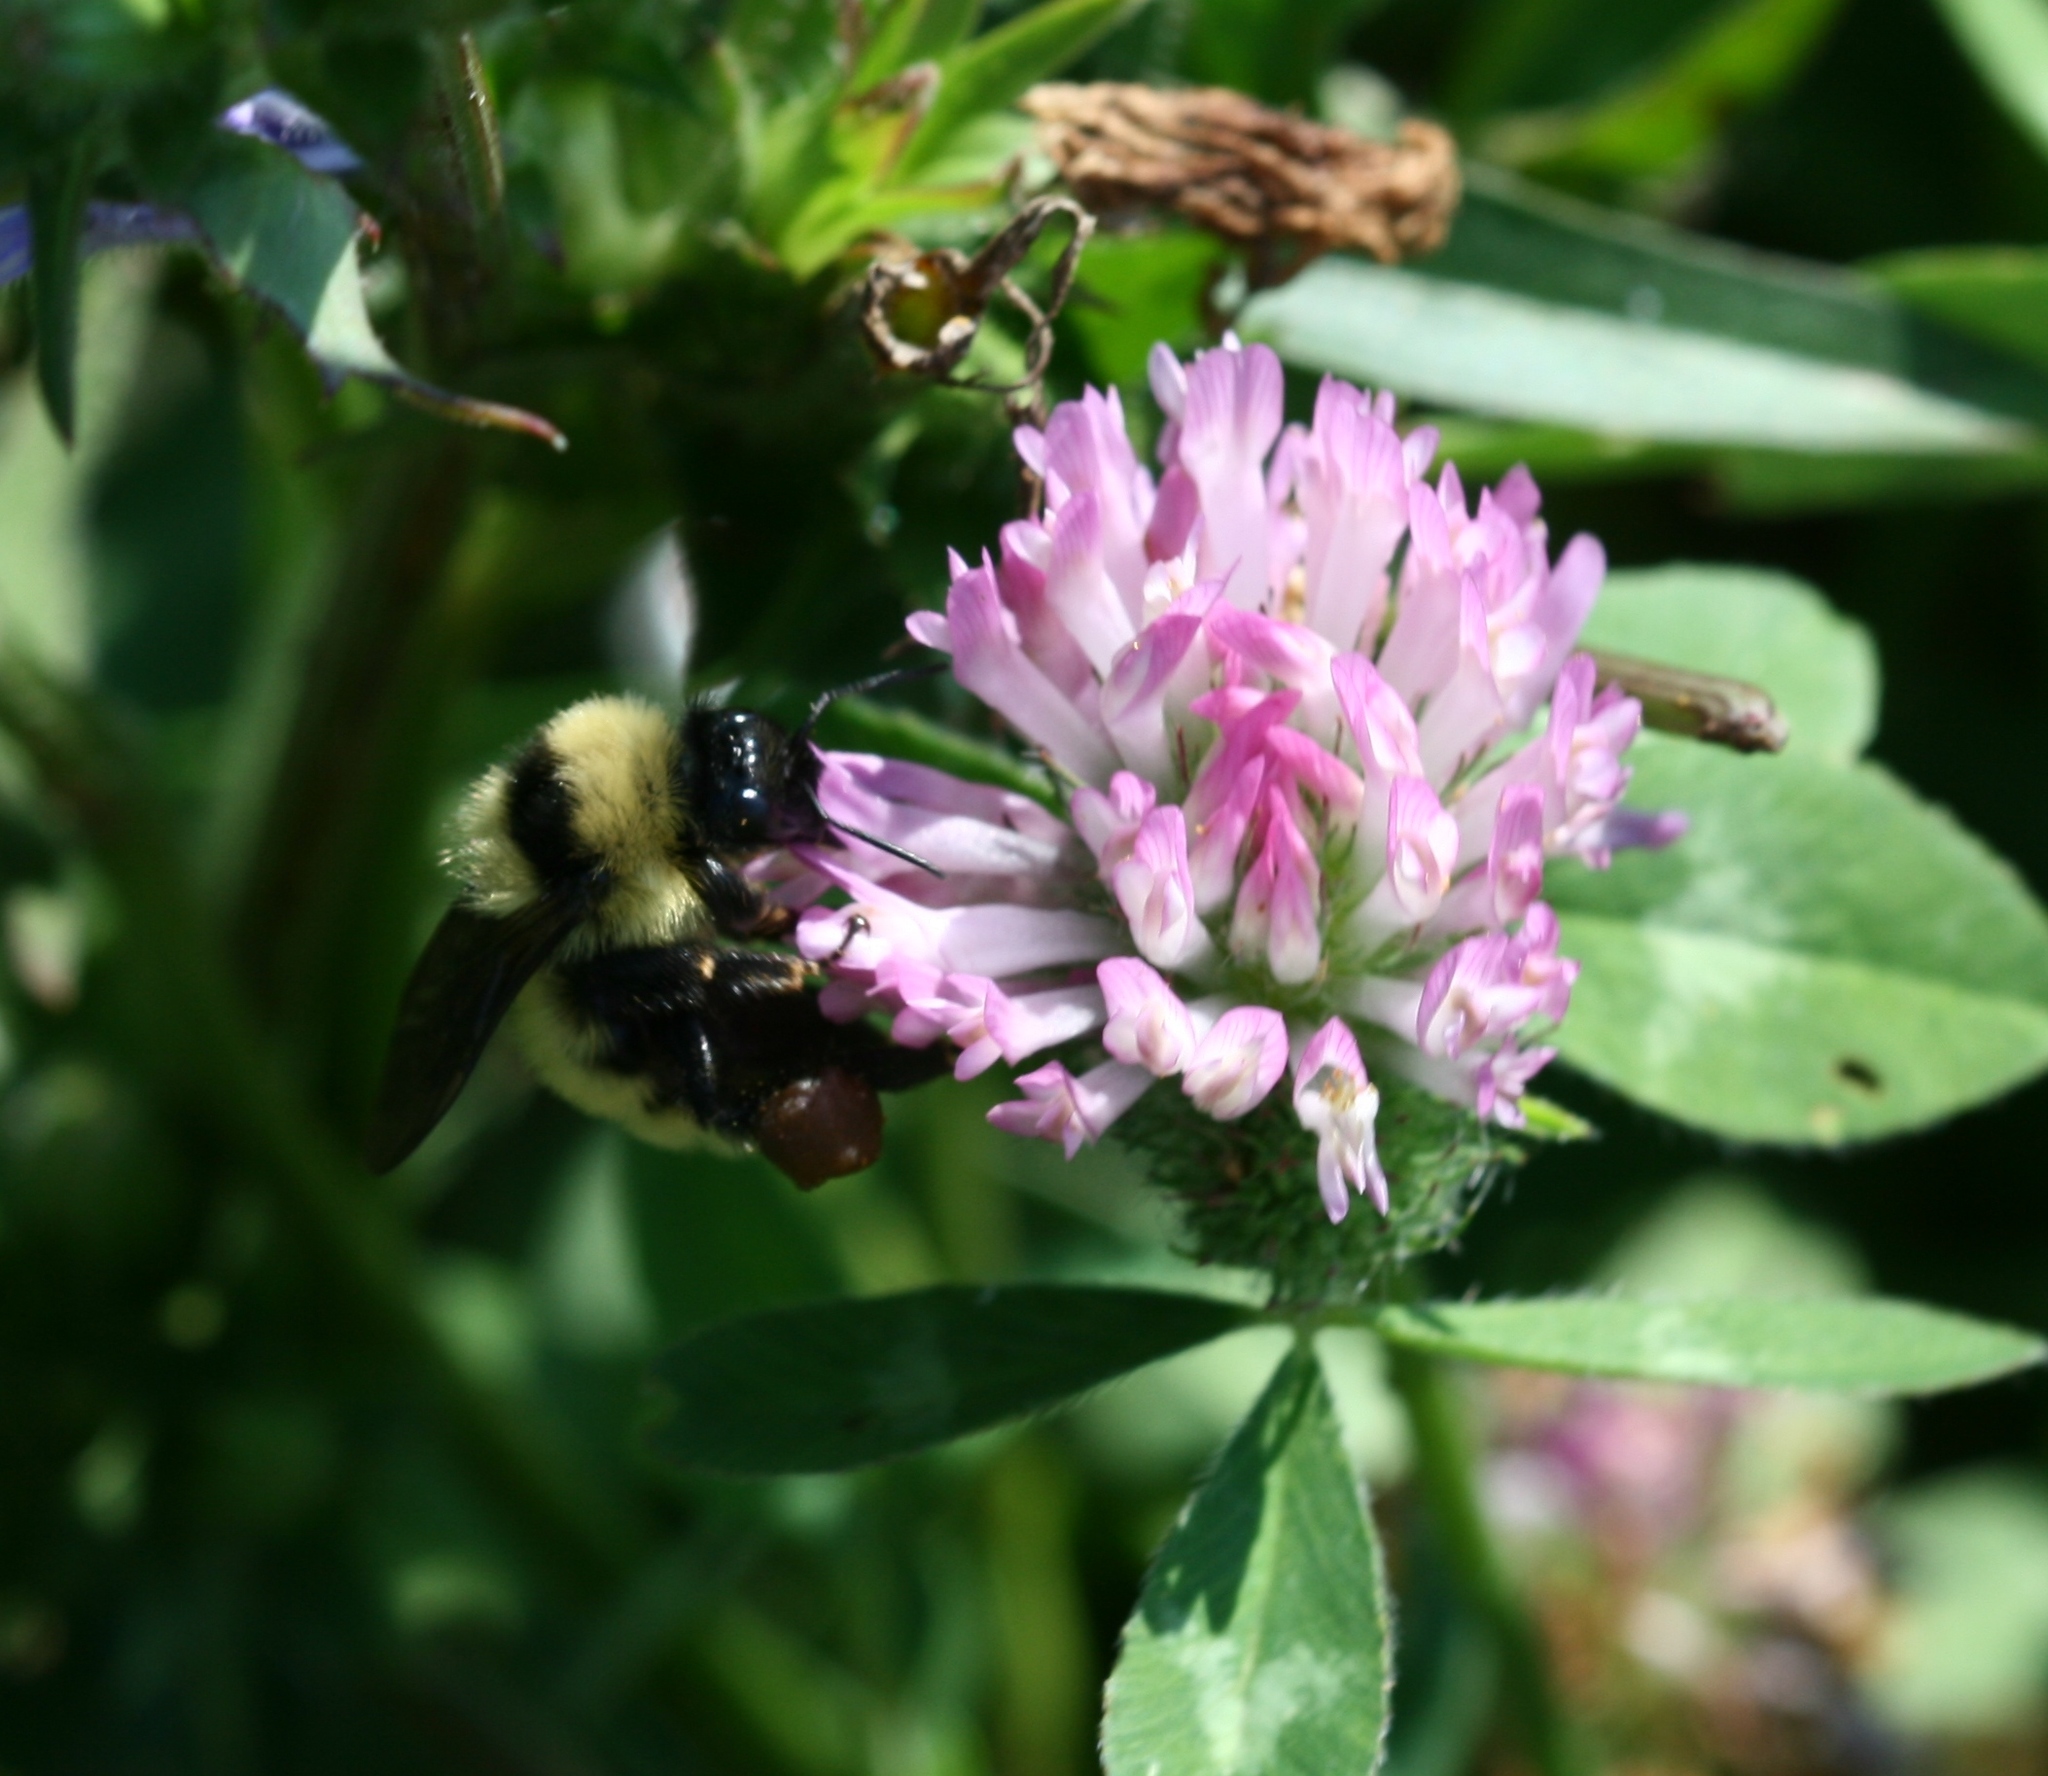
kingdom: Animalia
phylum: Arthropoda
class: Insecta
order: Hymenoptera
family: Apidae
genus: Bombus
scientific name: Bombus fervidus
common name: Yellow bumble bee
